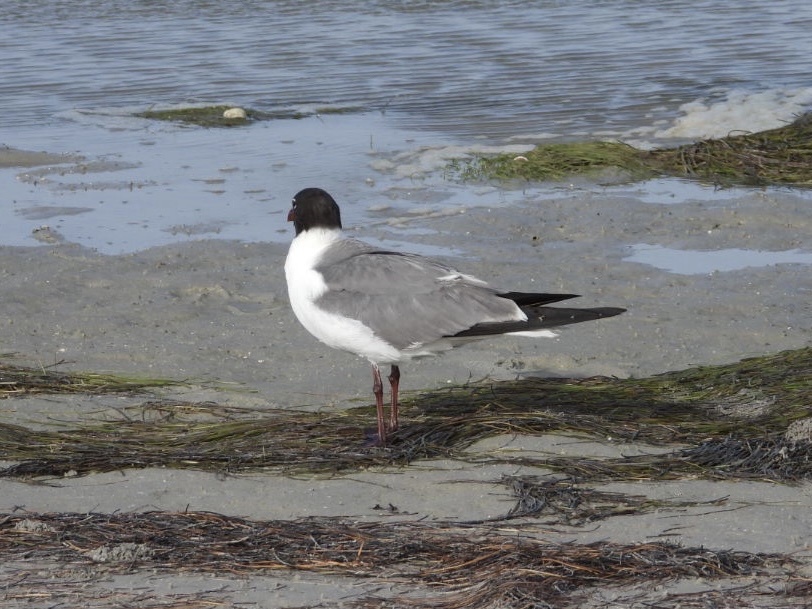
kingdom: Animalia
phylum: Chordata
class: Aves
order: Charadriiformes
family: Laridae
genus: Leucophaeus
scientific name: Leucophaeus atricilla
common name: Laughing gull
